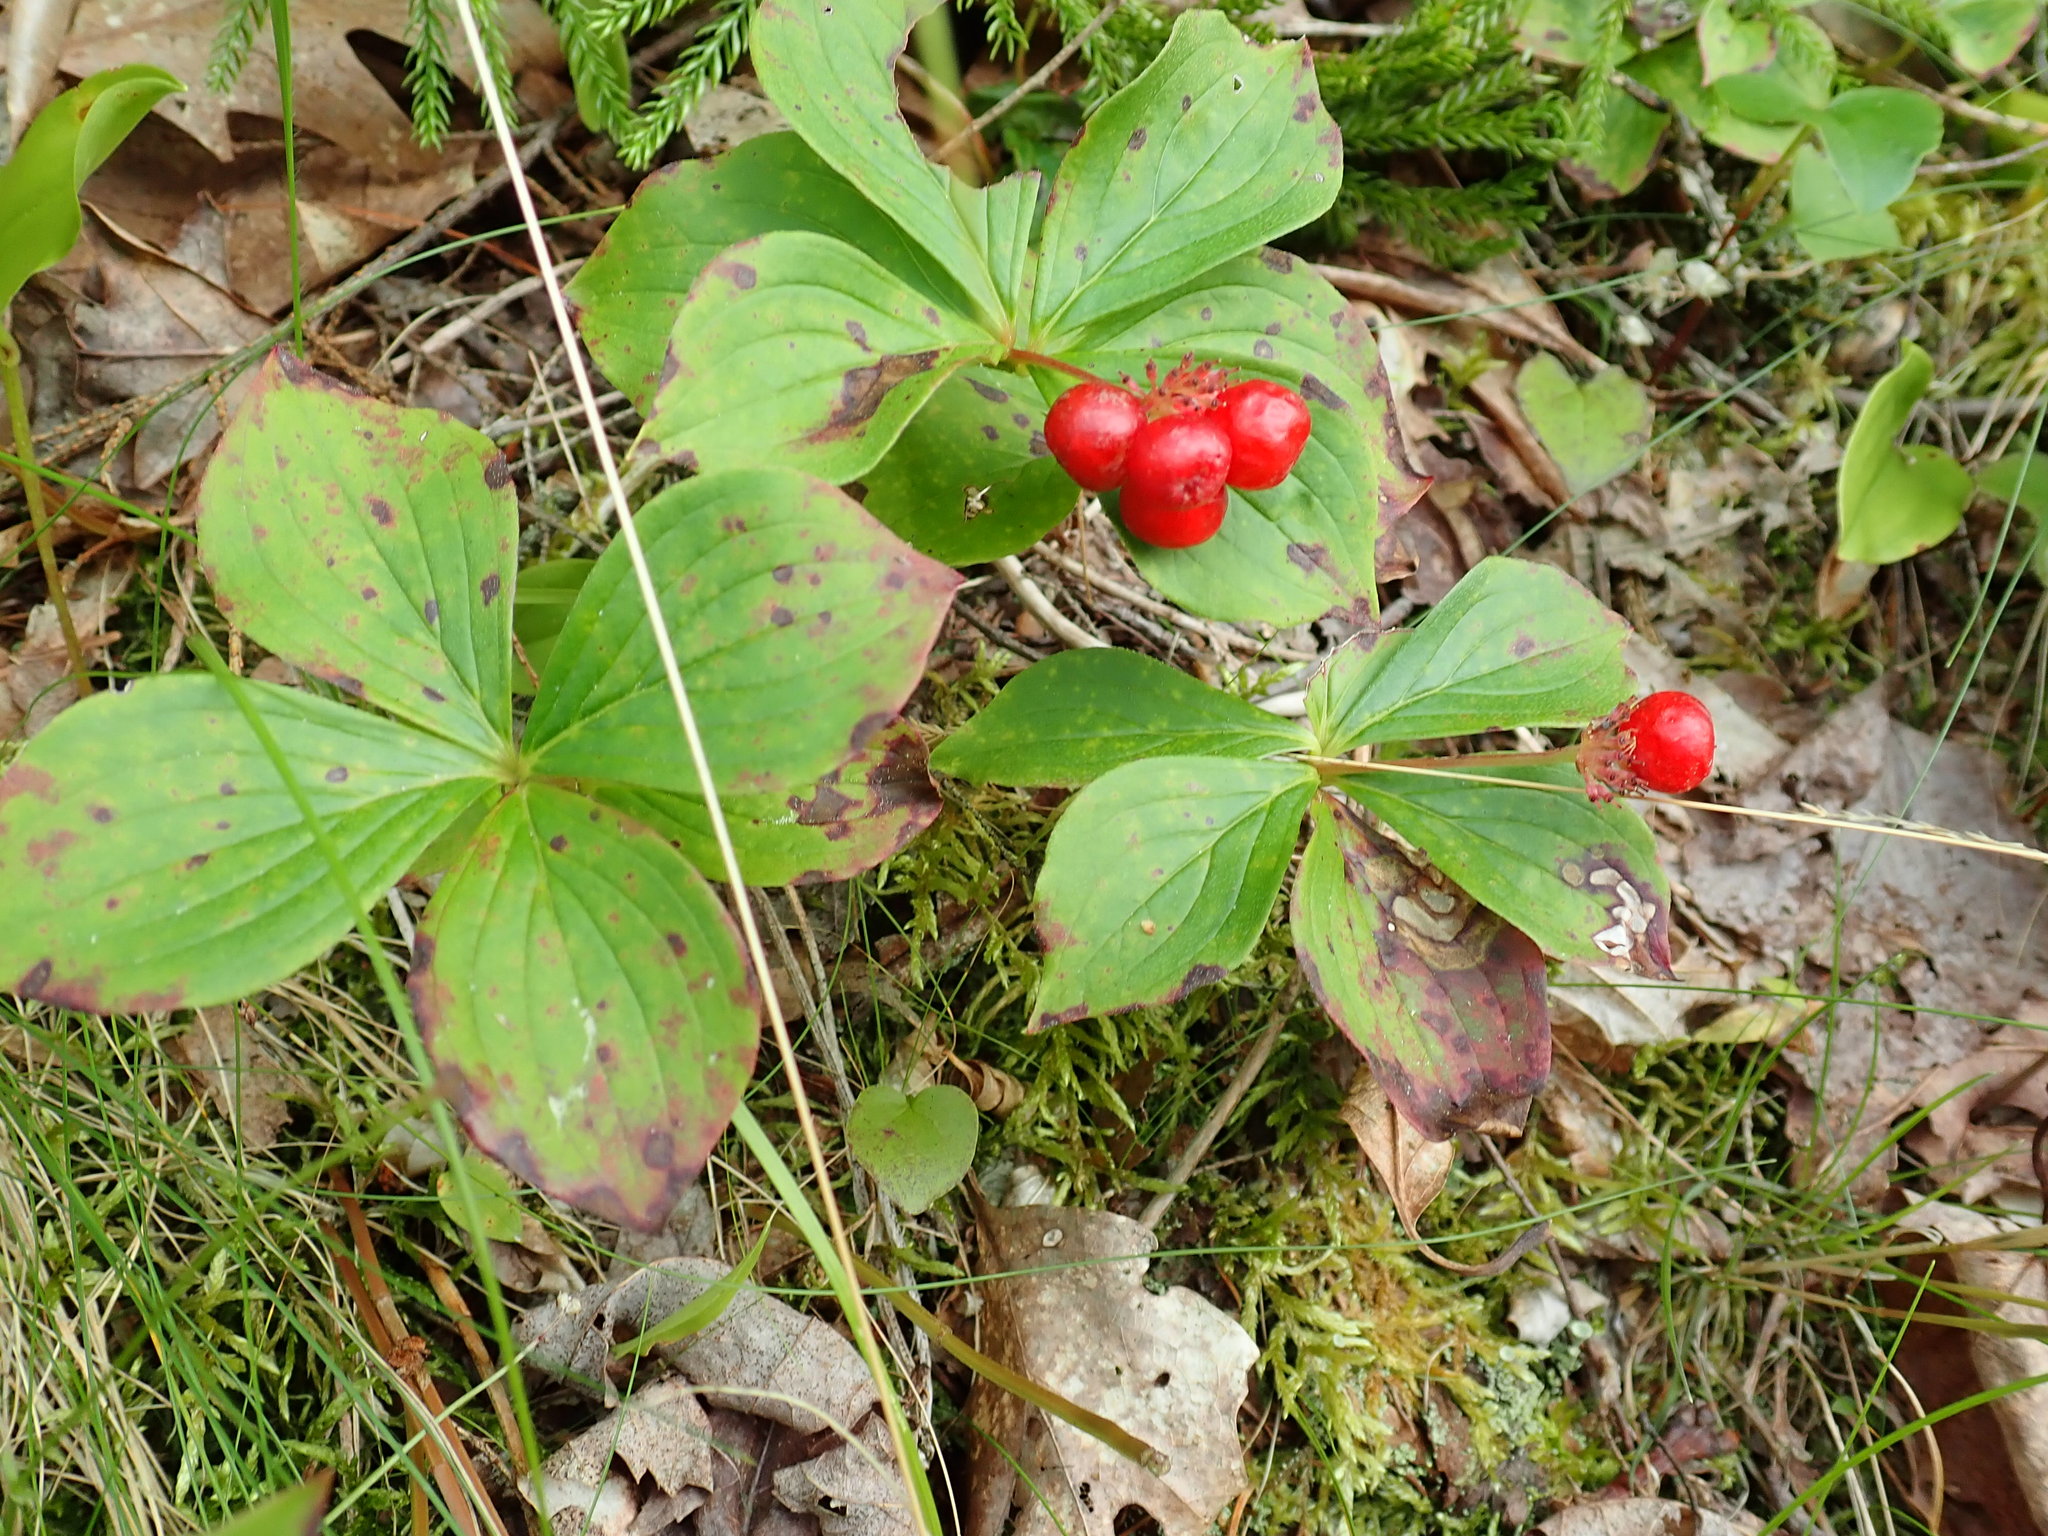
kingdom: Plantae
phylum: Tracheophyta
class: Magnoliopsida
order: Cornales
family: Cornaceae
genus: Cornus
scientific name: Cornus canadensis
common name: Creeping dogwood
